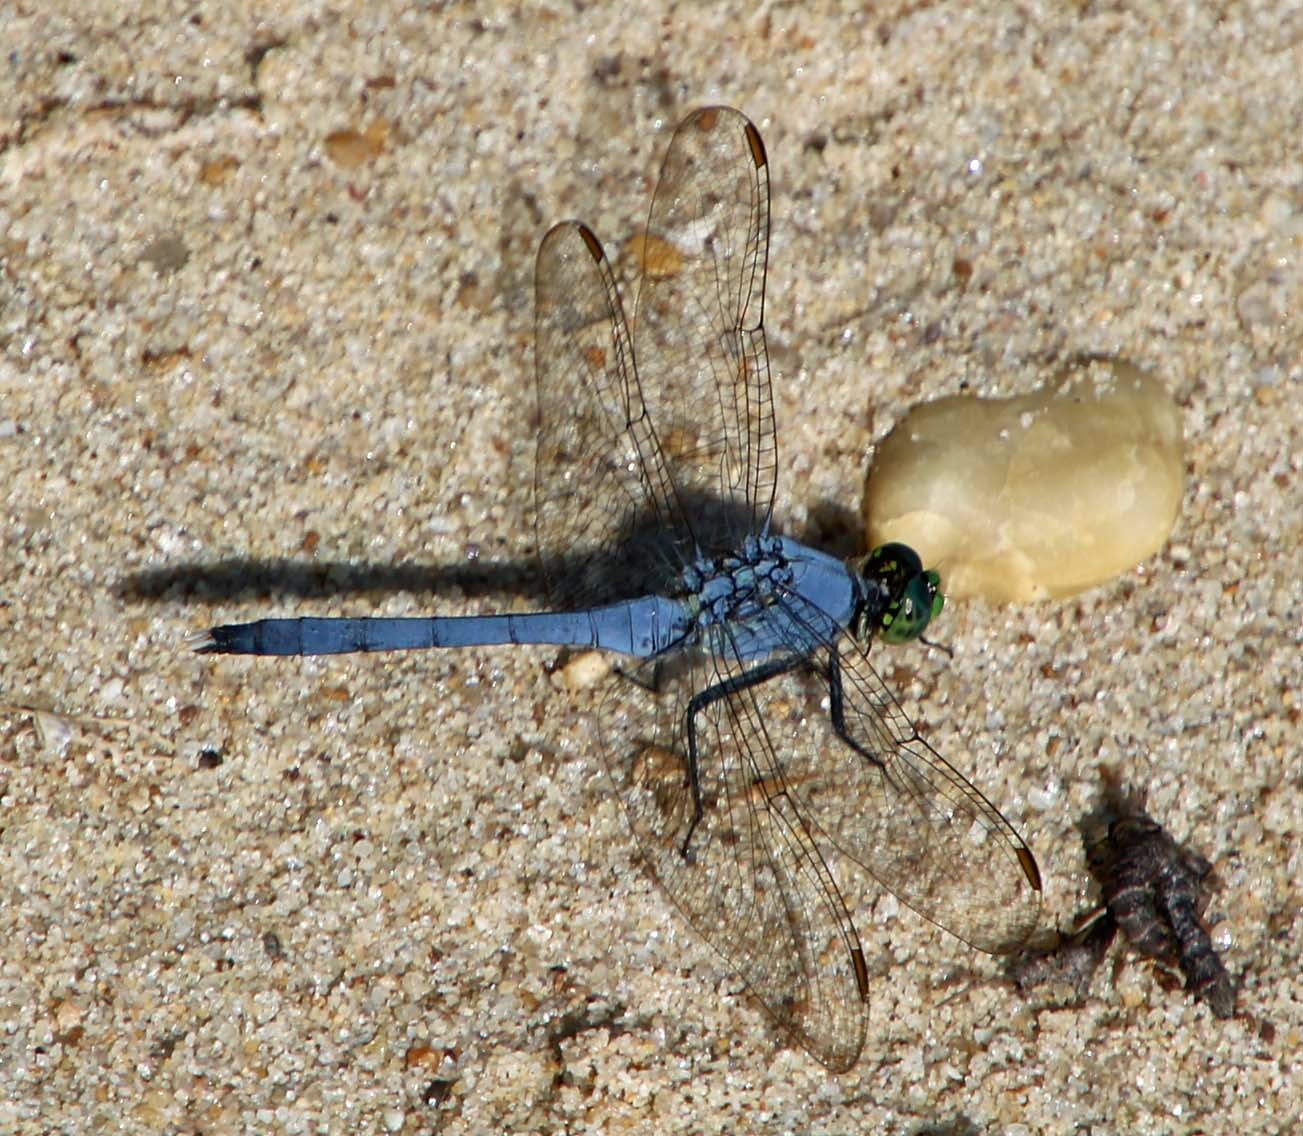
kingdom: Animalia
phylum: Arthropoda
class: Insecta
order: Odonata
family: Libellulidae
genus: Erythemis
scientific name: Erythemis simplicicollis
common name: Eastern pondhawk
